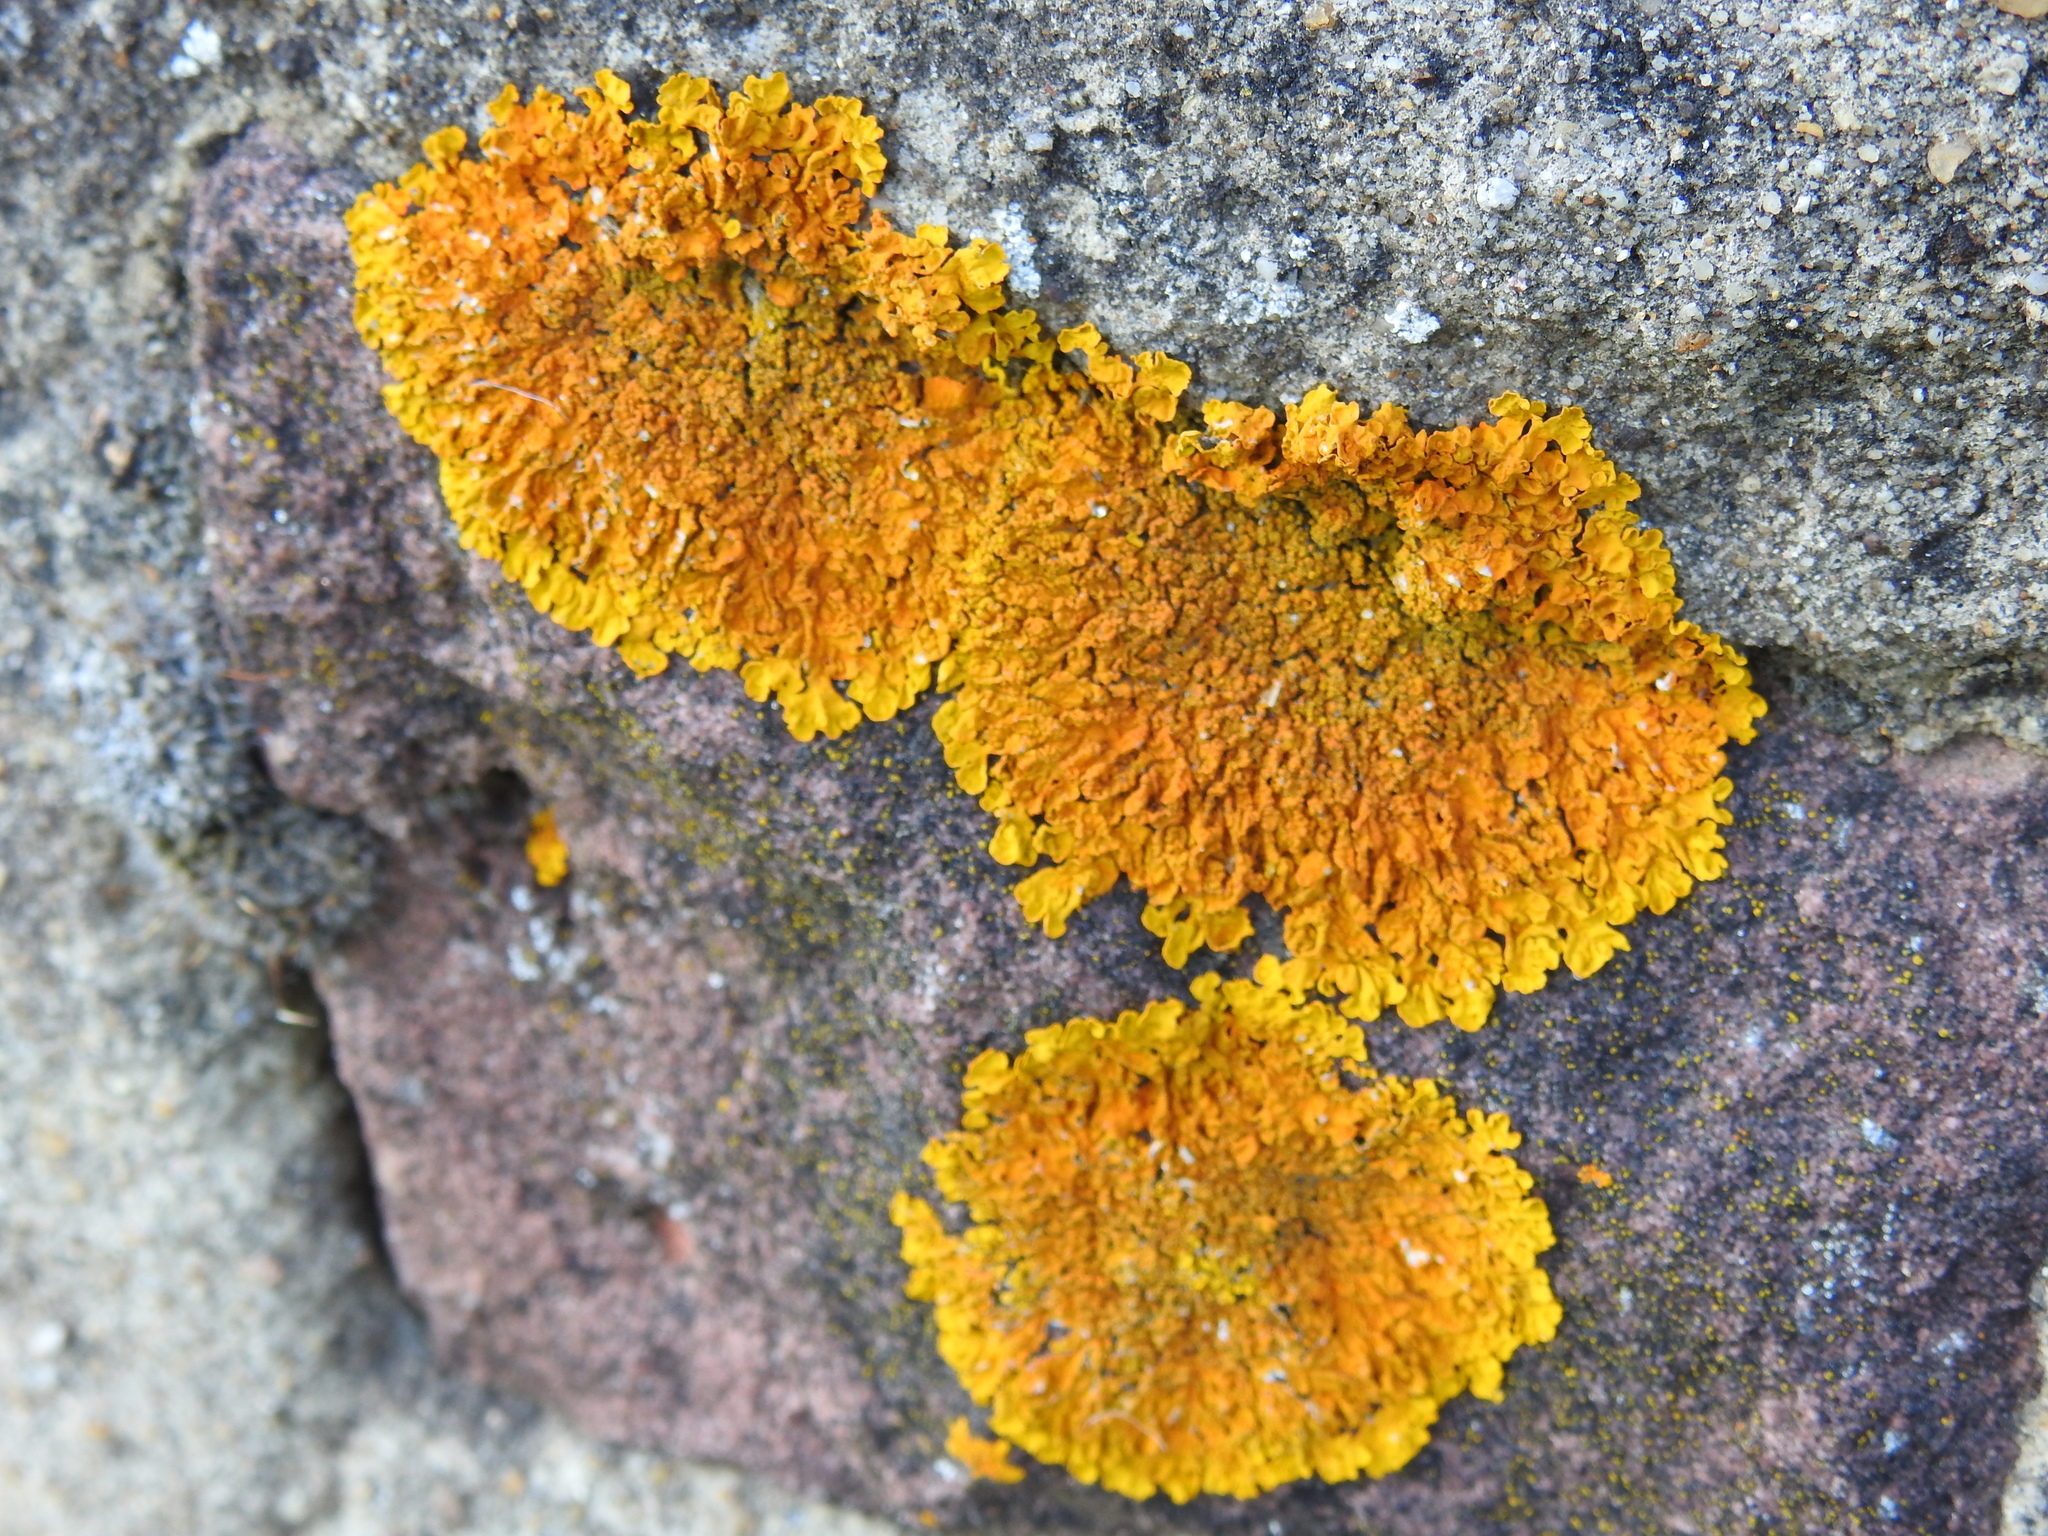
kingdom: Fungi
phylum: Ascomycota
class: Lecanoromycetes
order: Teloschistales
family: Teloschistaceae
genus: Xanthoria
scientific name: Xanthoria calcicola
